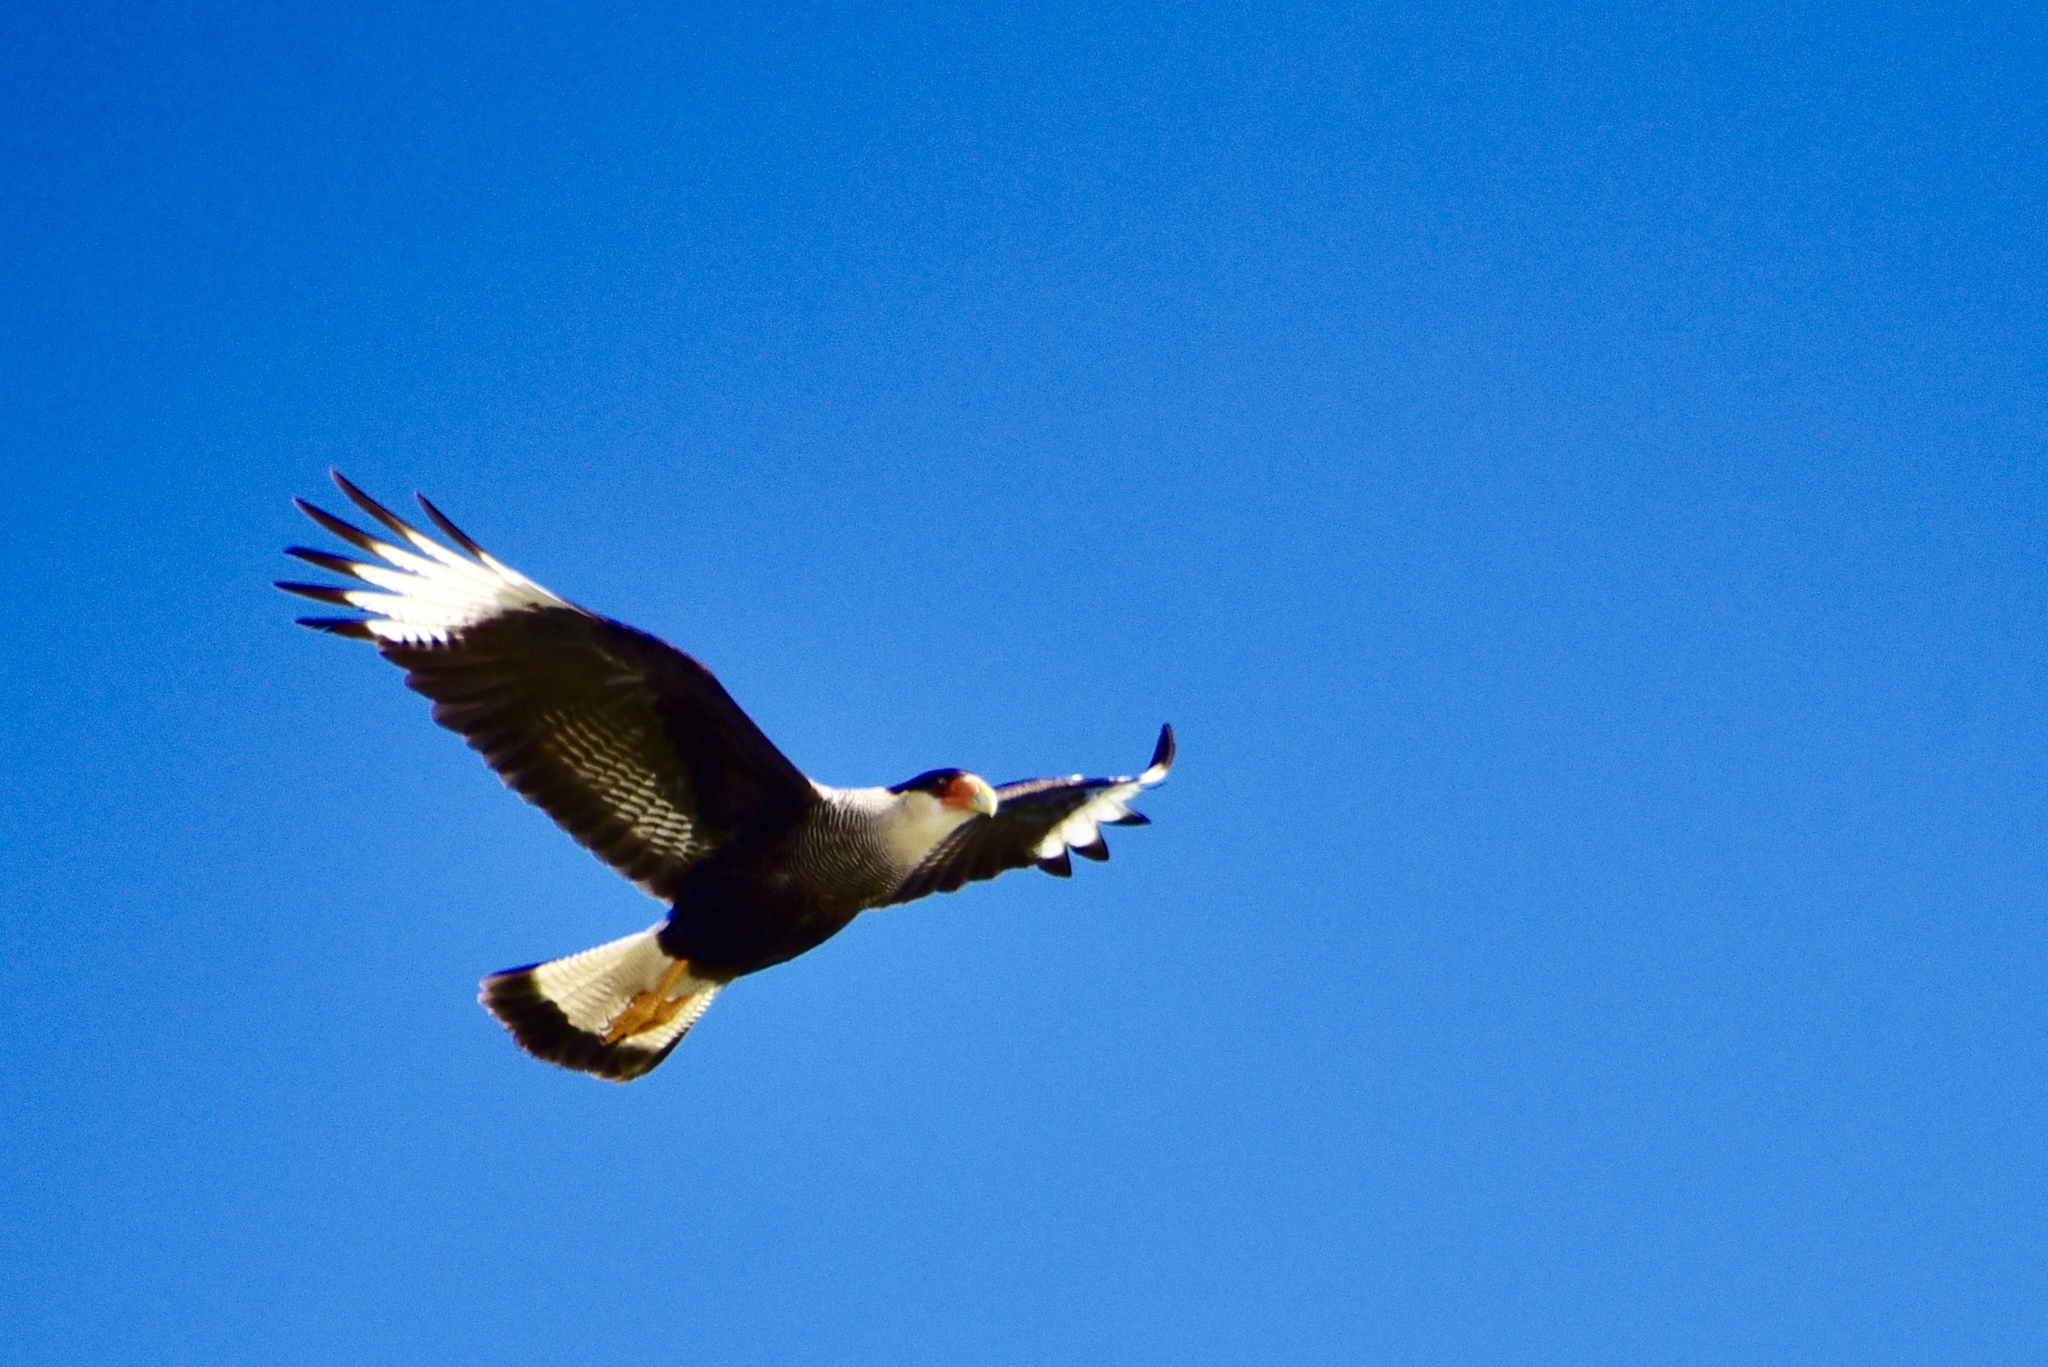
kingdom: Animalia
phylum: Chordata
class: Aves
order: Falconiformes
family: Falconidae
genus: Caracara
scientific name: Caracara plancus
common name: Southern caracara
